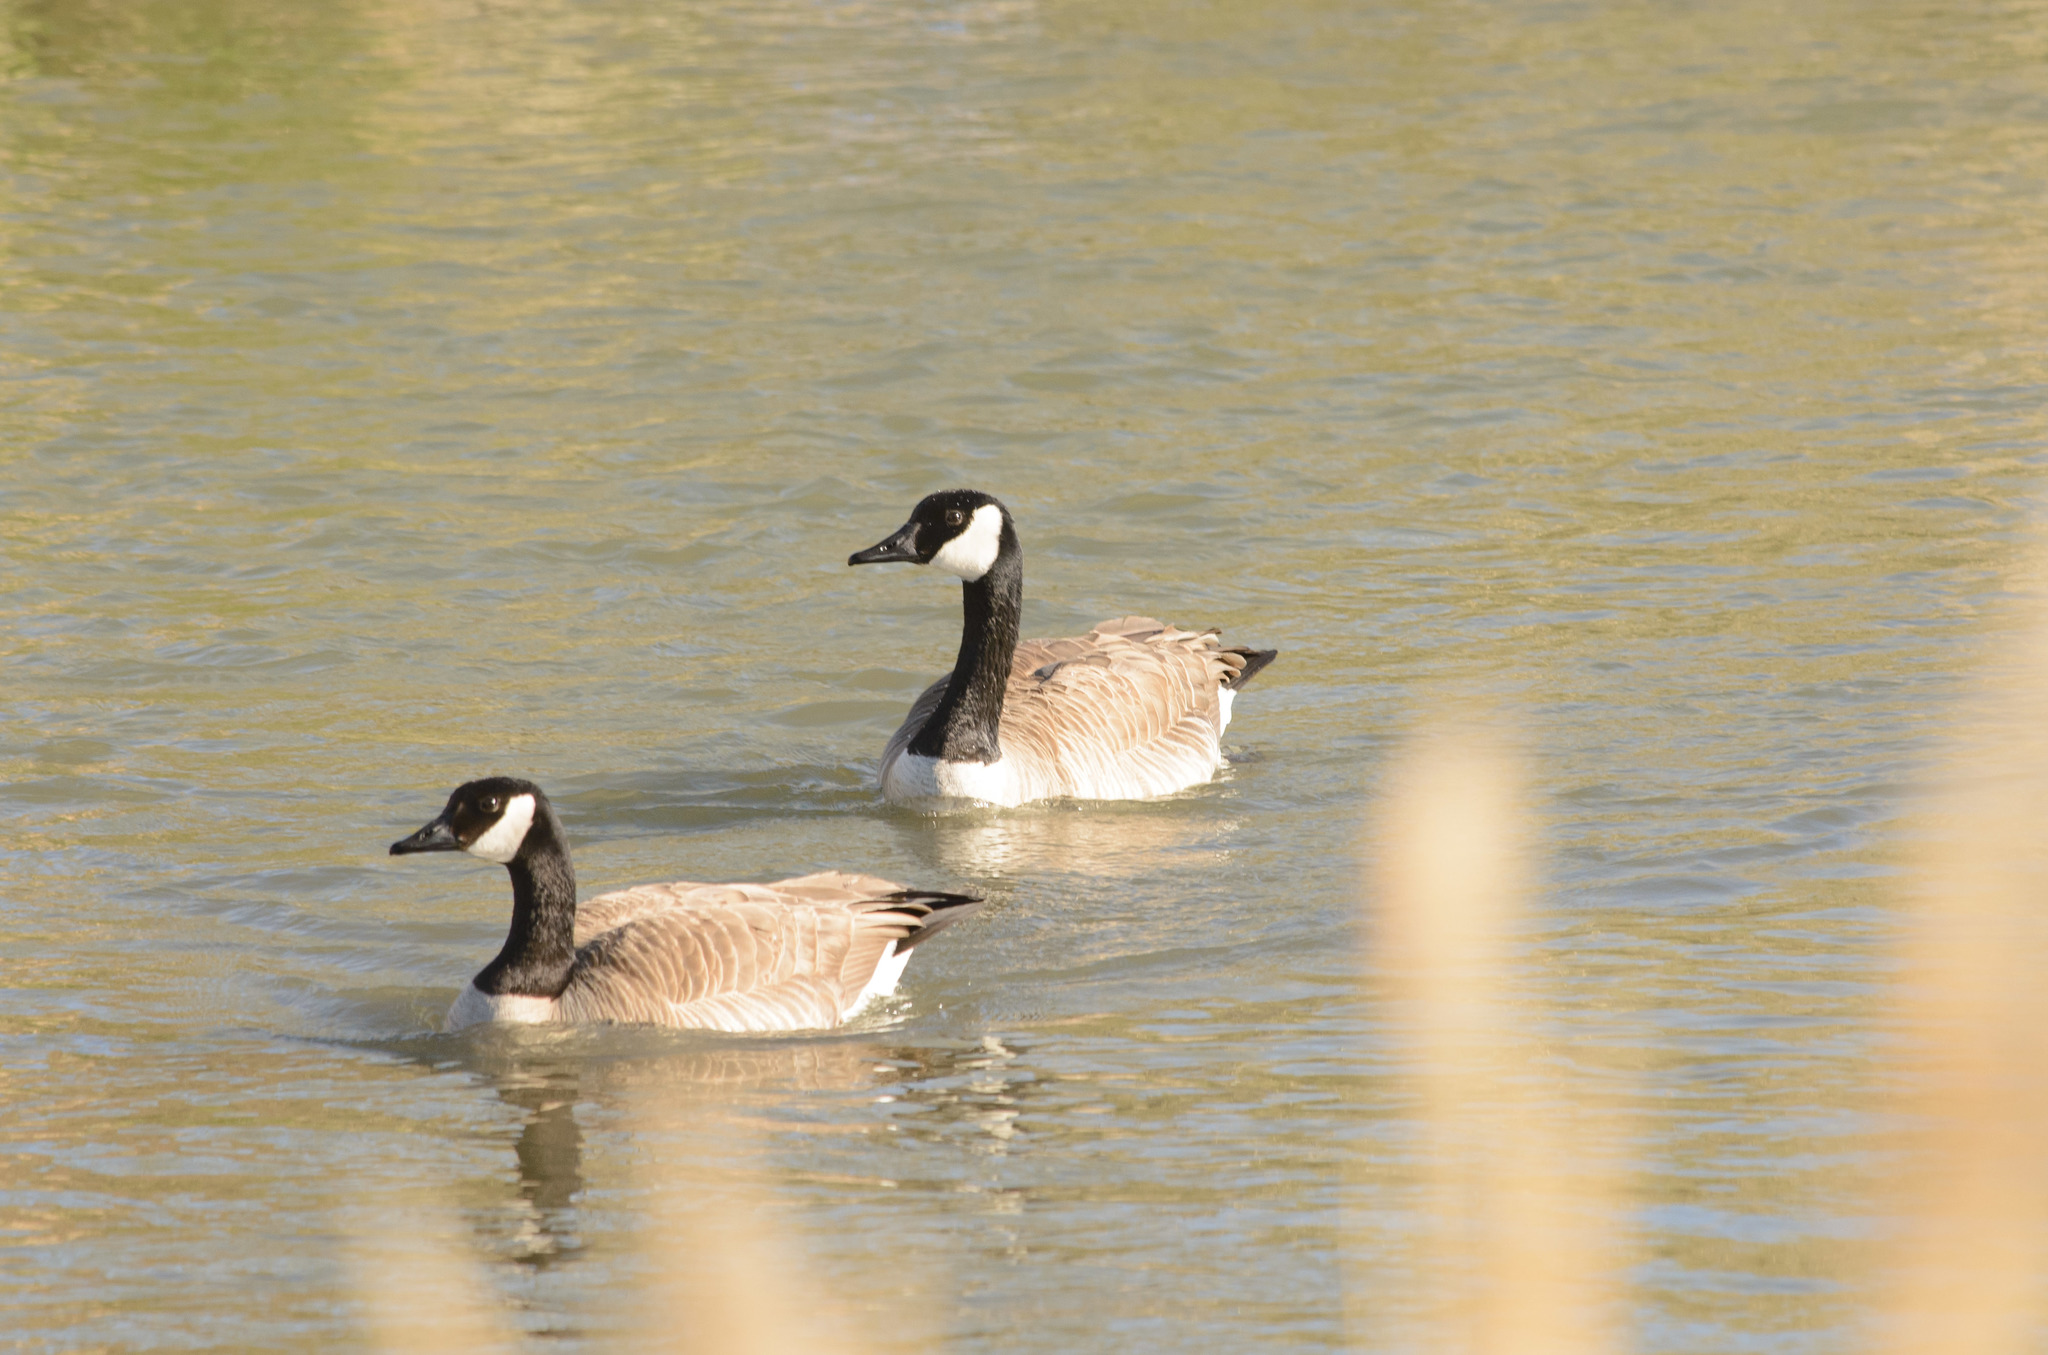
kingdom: Animalia
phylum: Chordata
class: Aves
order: Anseriformes
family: Anatidae
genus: Branta
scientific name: Branta canadensis
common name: Canada goose
